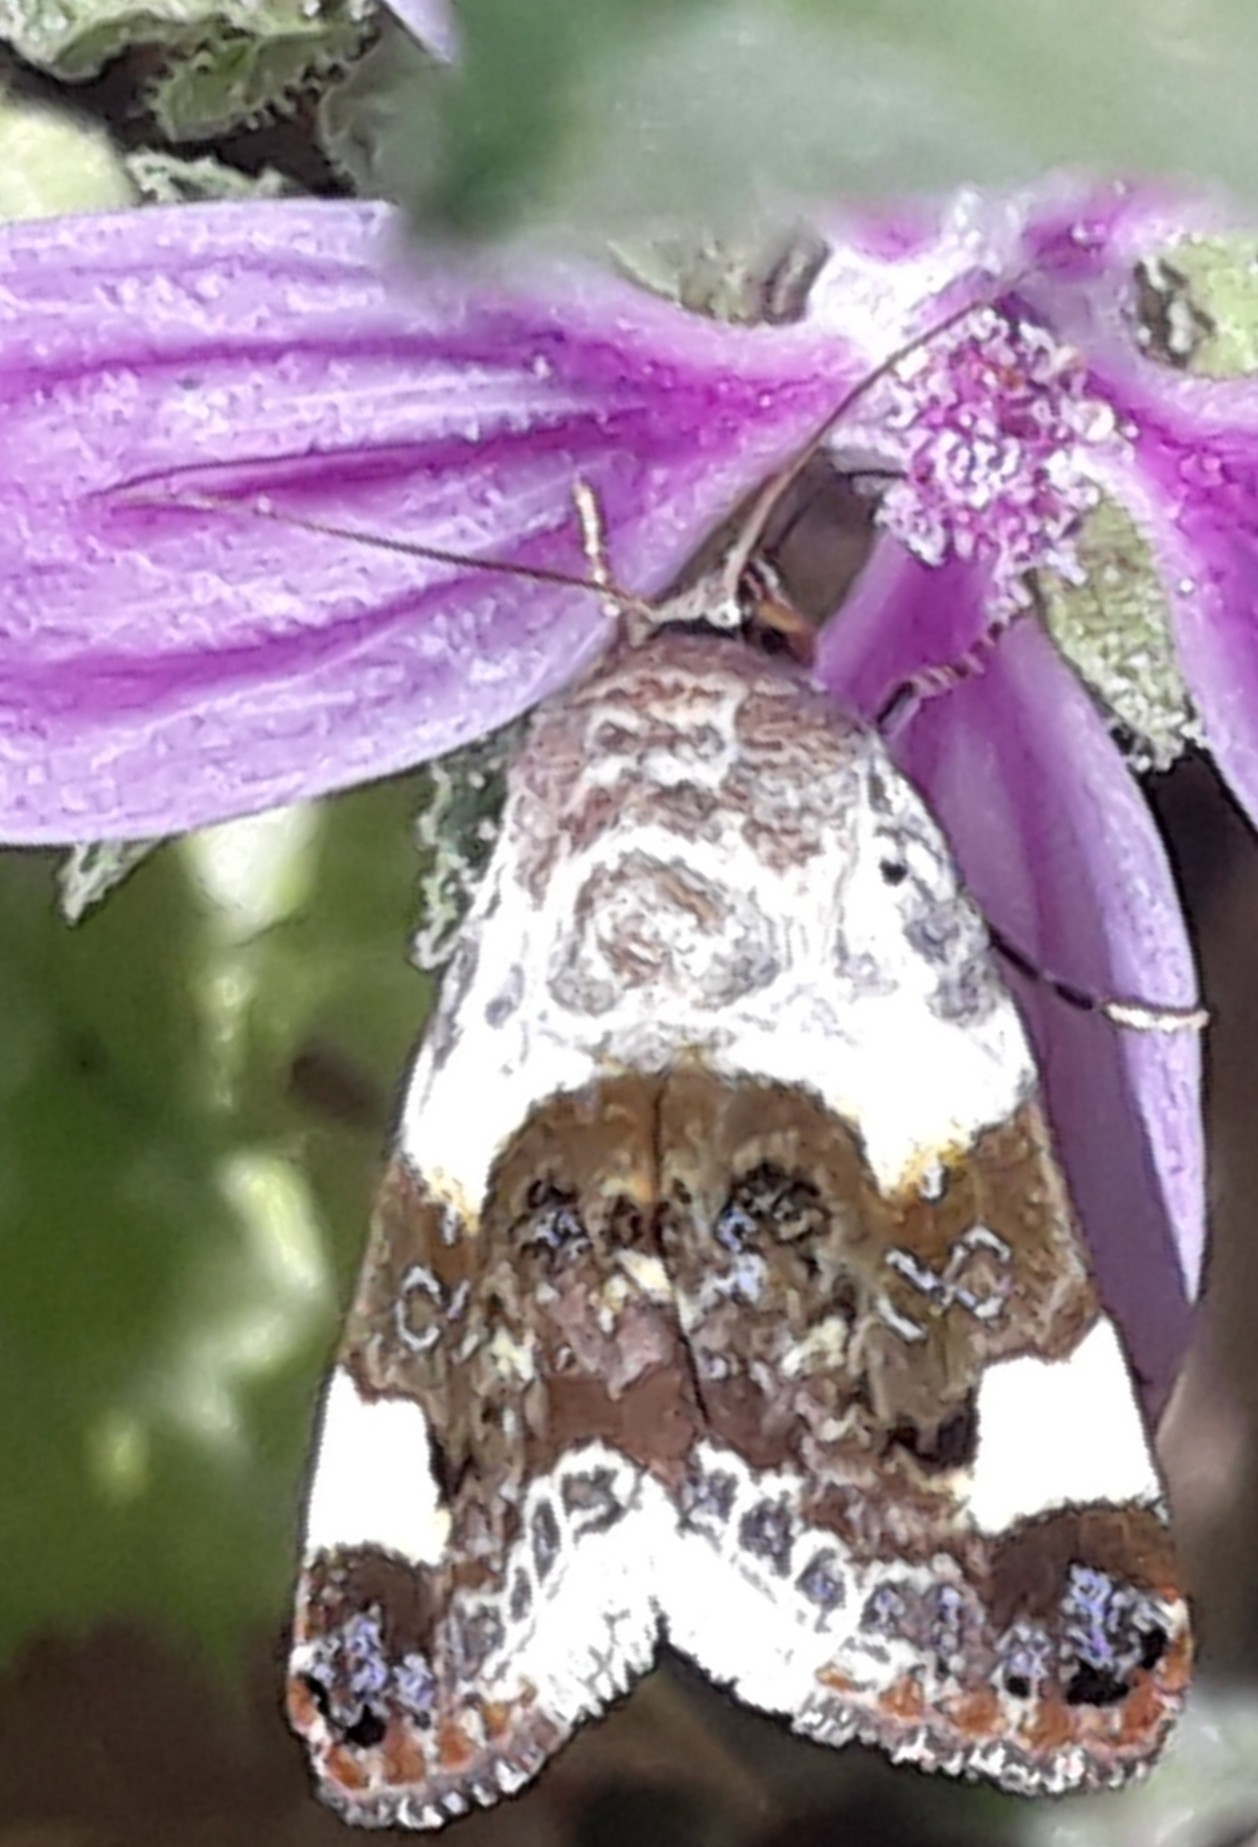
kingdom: Animalia
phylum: Arthropoda
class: Insecta
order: Lepidoptera
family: Noctuidae
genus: Acontia
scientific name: Acontia lucida
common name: Pale shoulder
